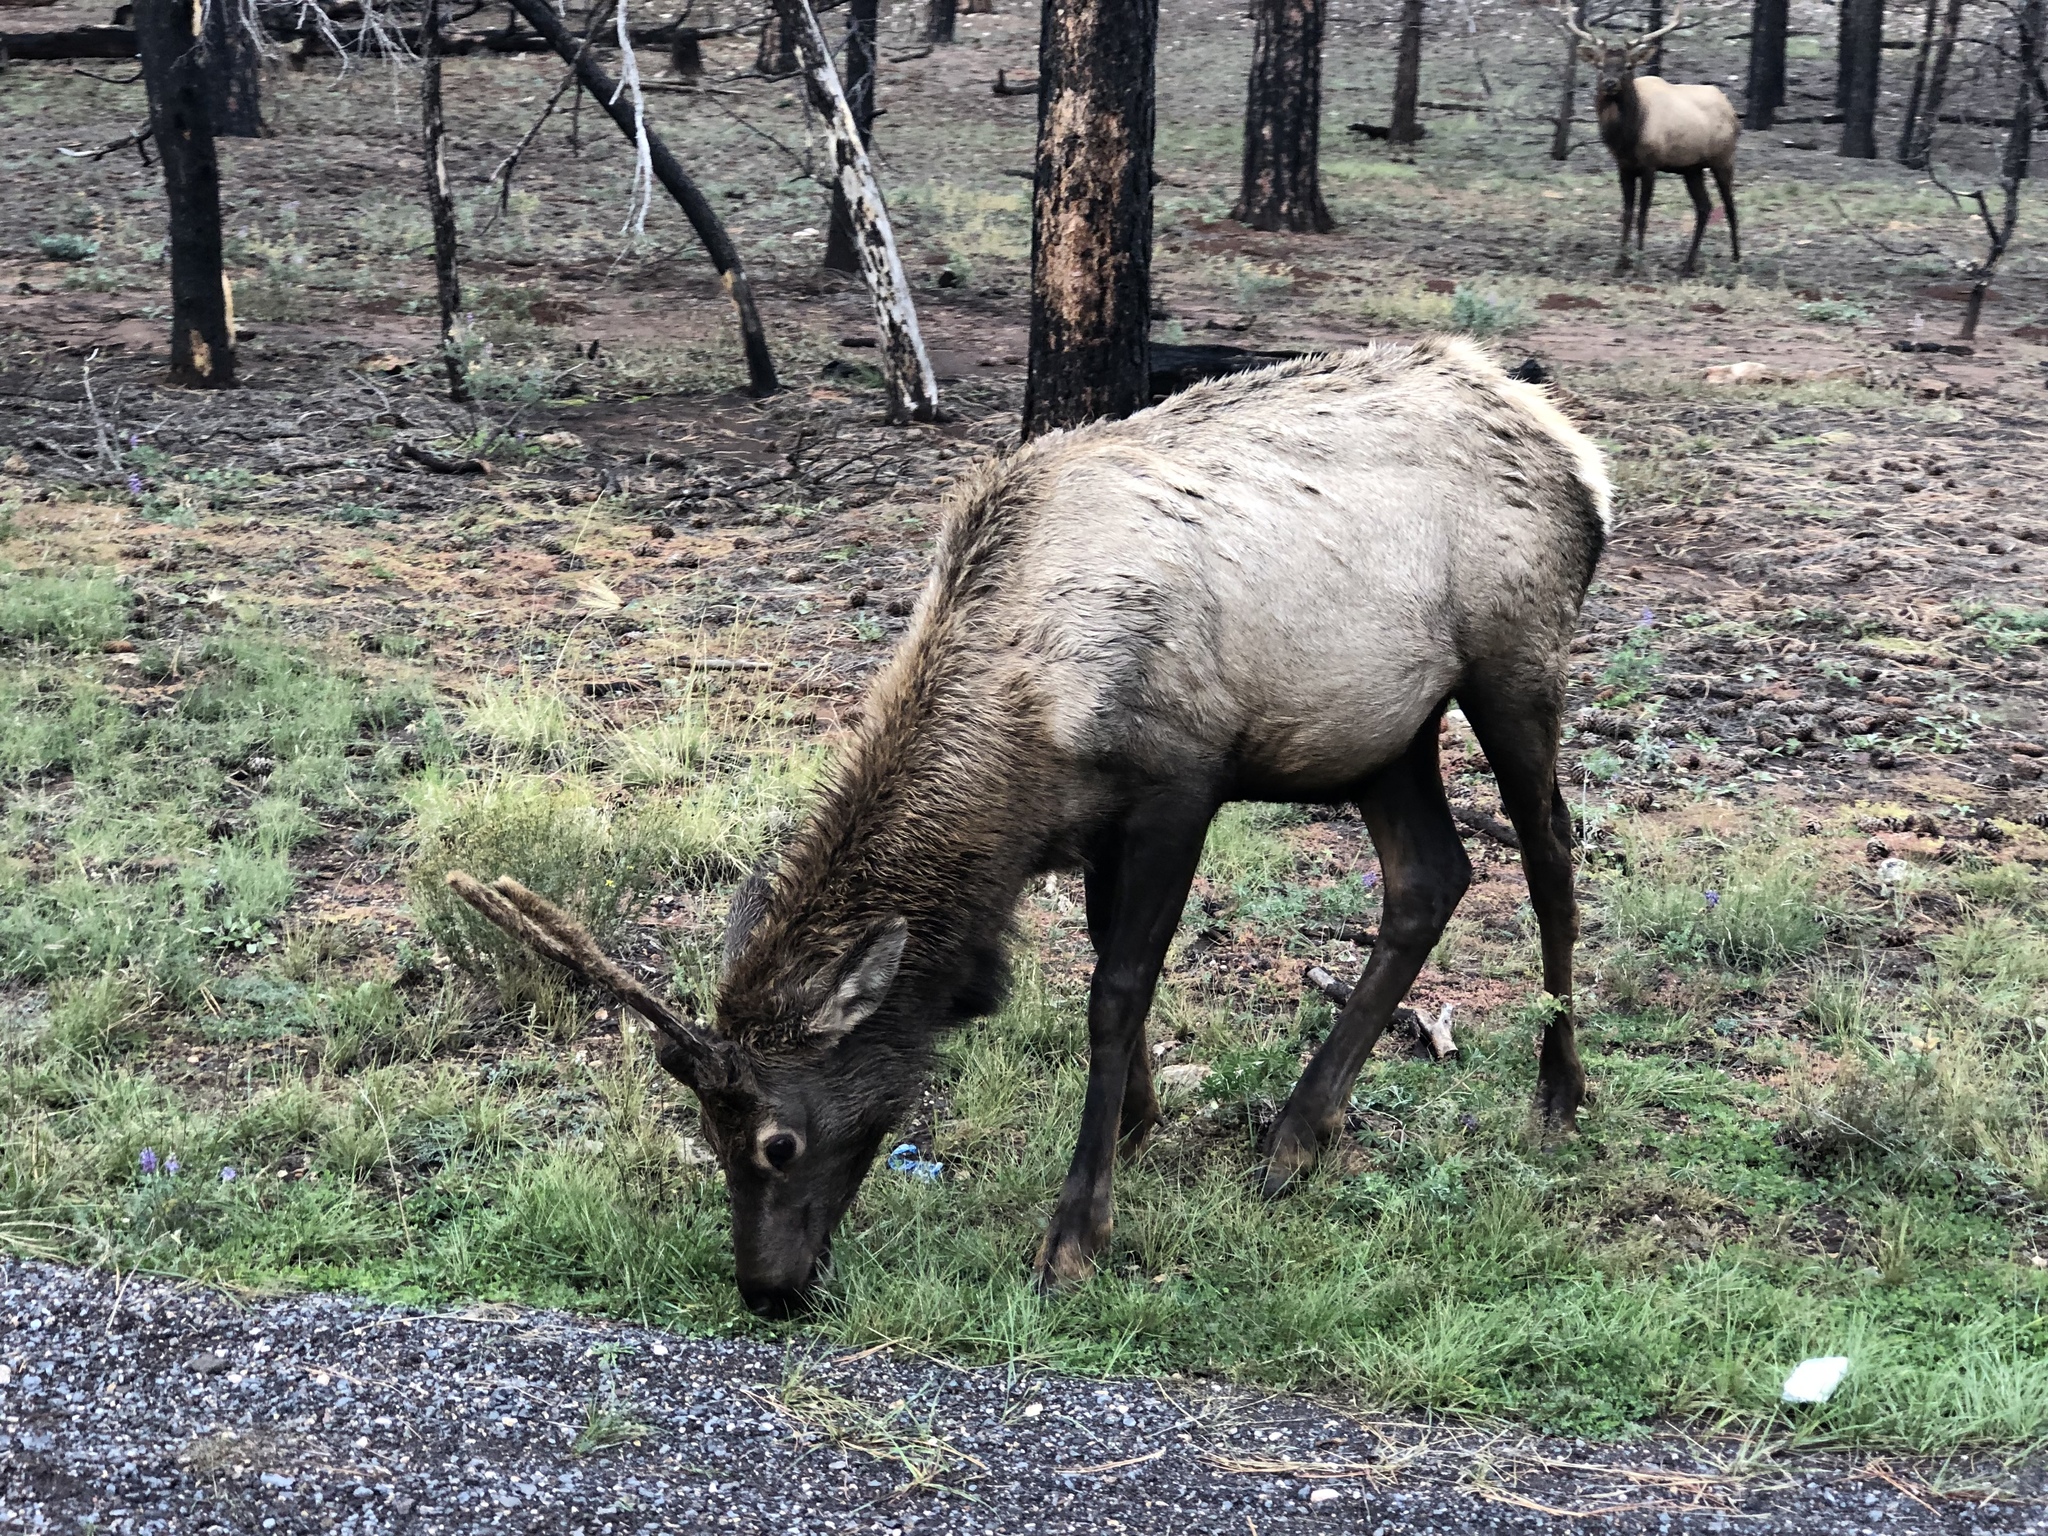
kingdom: Animalia
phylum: Chordata
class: Mammalia
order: Artiodactyla
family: Cervidae
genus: Cervus
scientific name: Cervus elaphus
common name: Red deer
